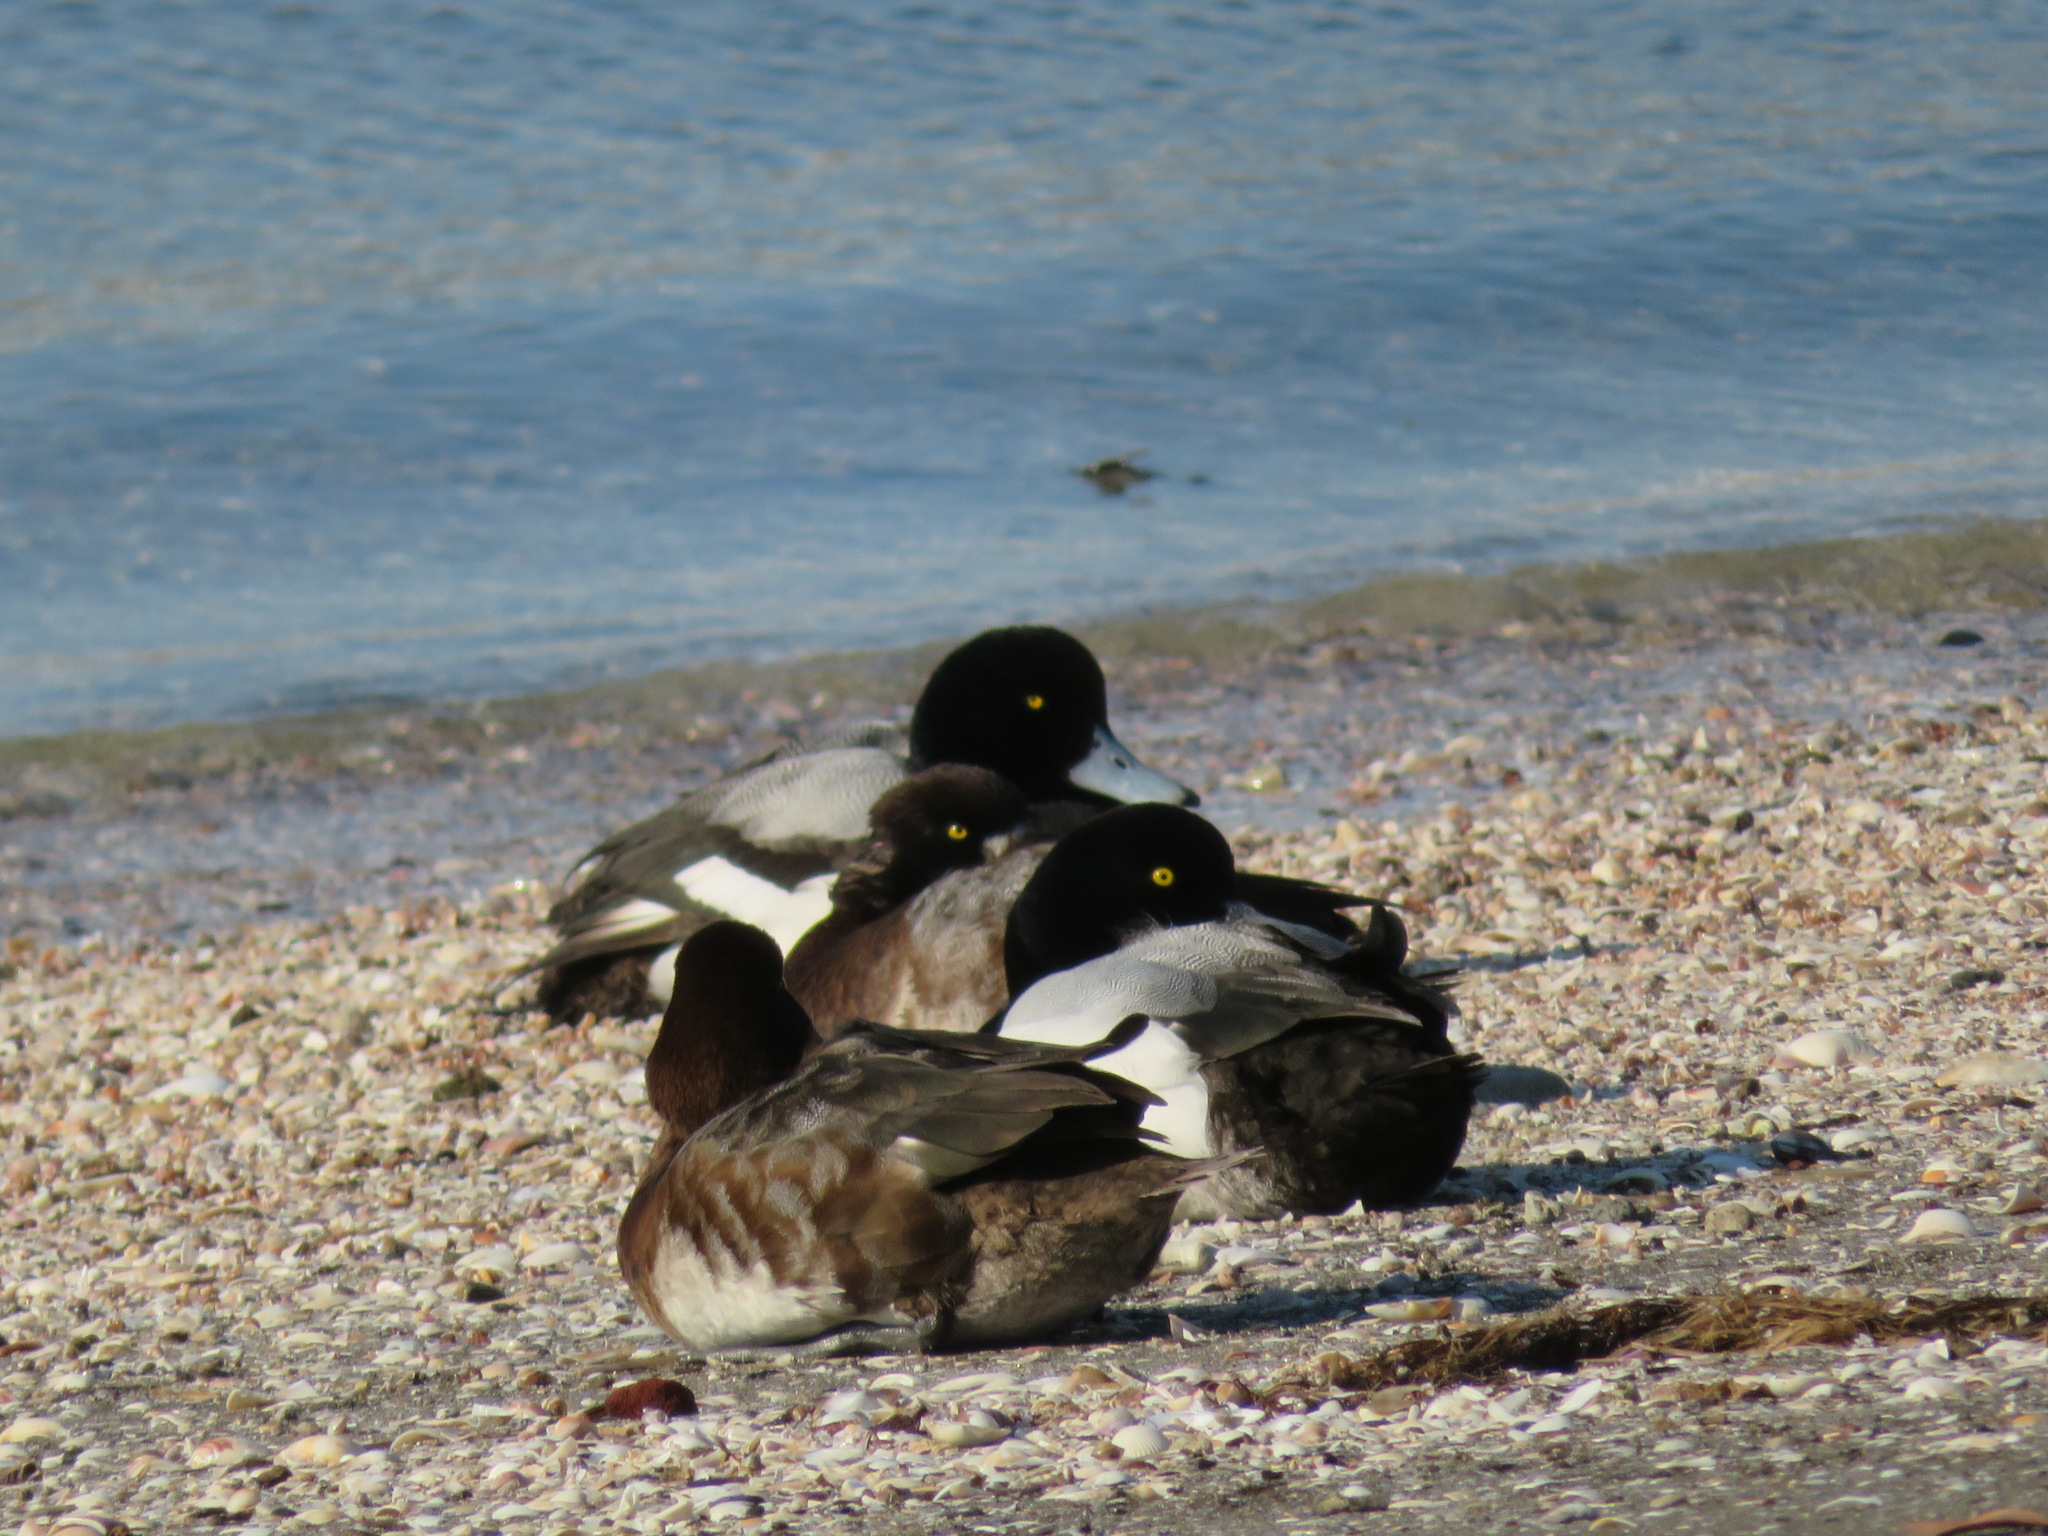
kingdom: Animalia
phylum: Chordata
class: Aves
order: Anseriformes
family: Anatidae
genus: Aythya
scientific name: Aythya marila
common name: Greater scaup
